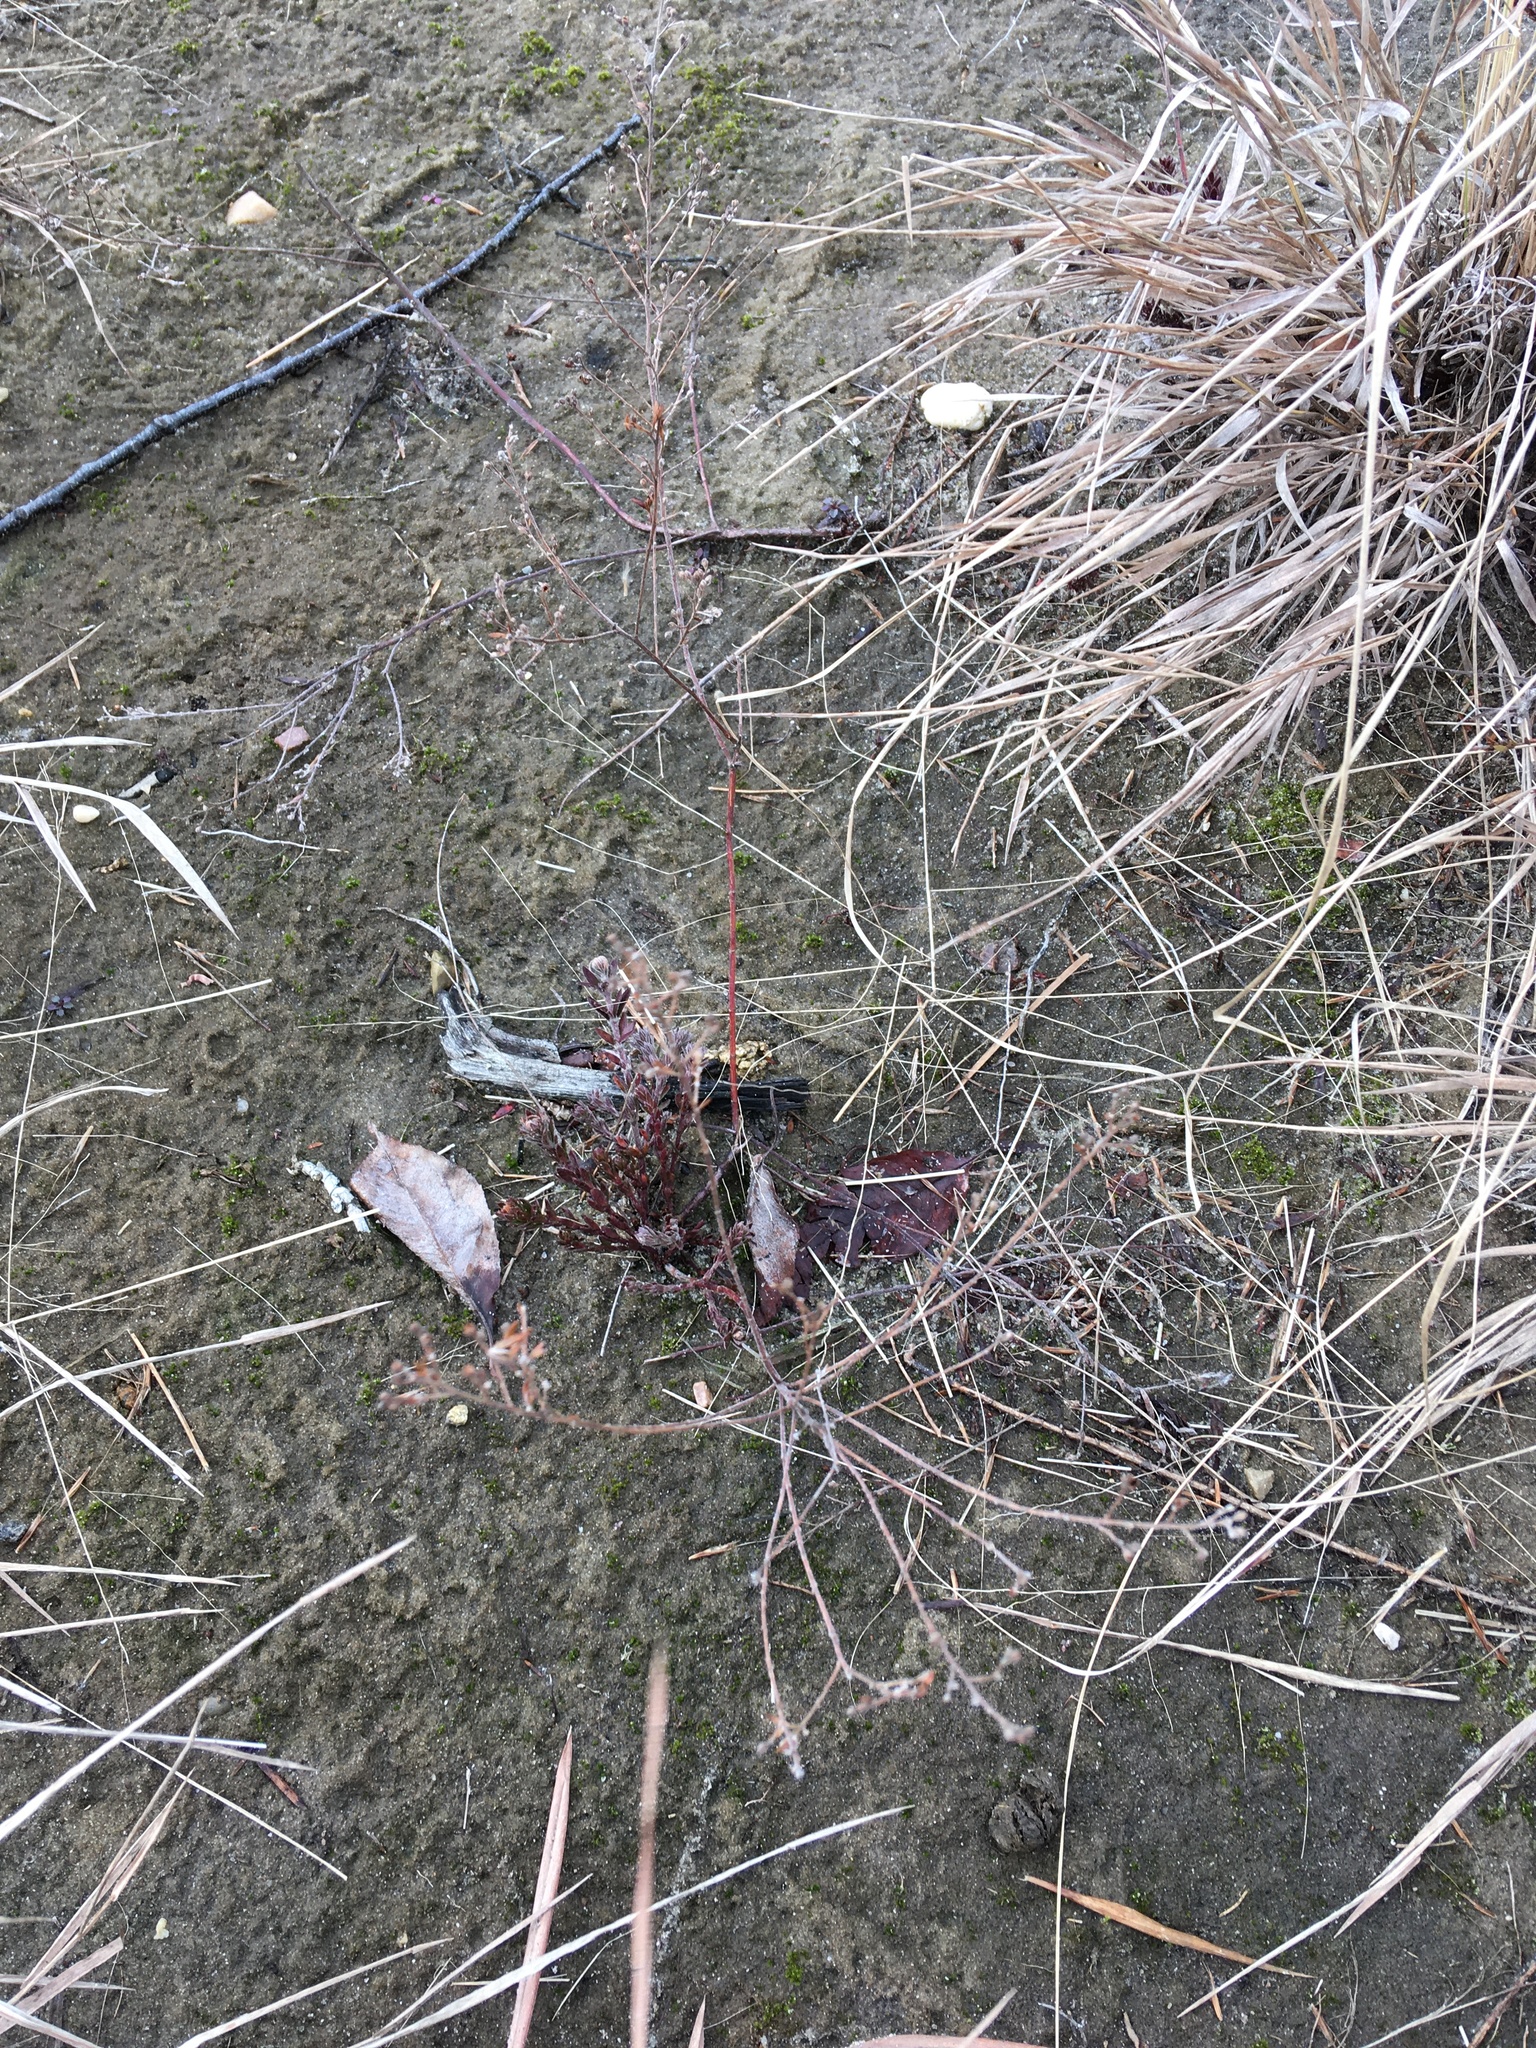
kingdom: Plantae
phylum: Tracheophyta
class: Magnoliopsida
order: Malvales
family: Cistaceae
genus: Lechea
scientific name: Lechea maritima
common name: Beach pinweed
